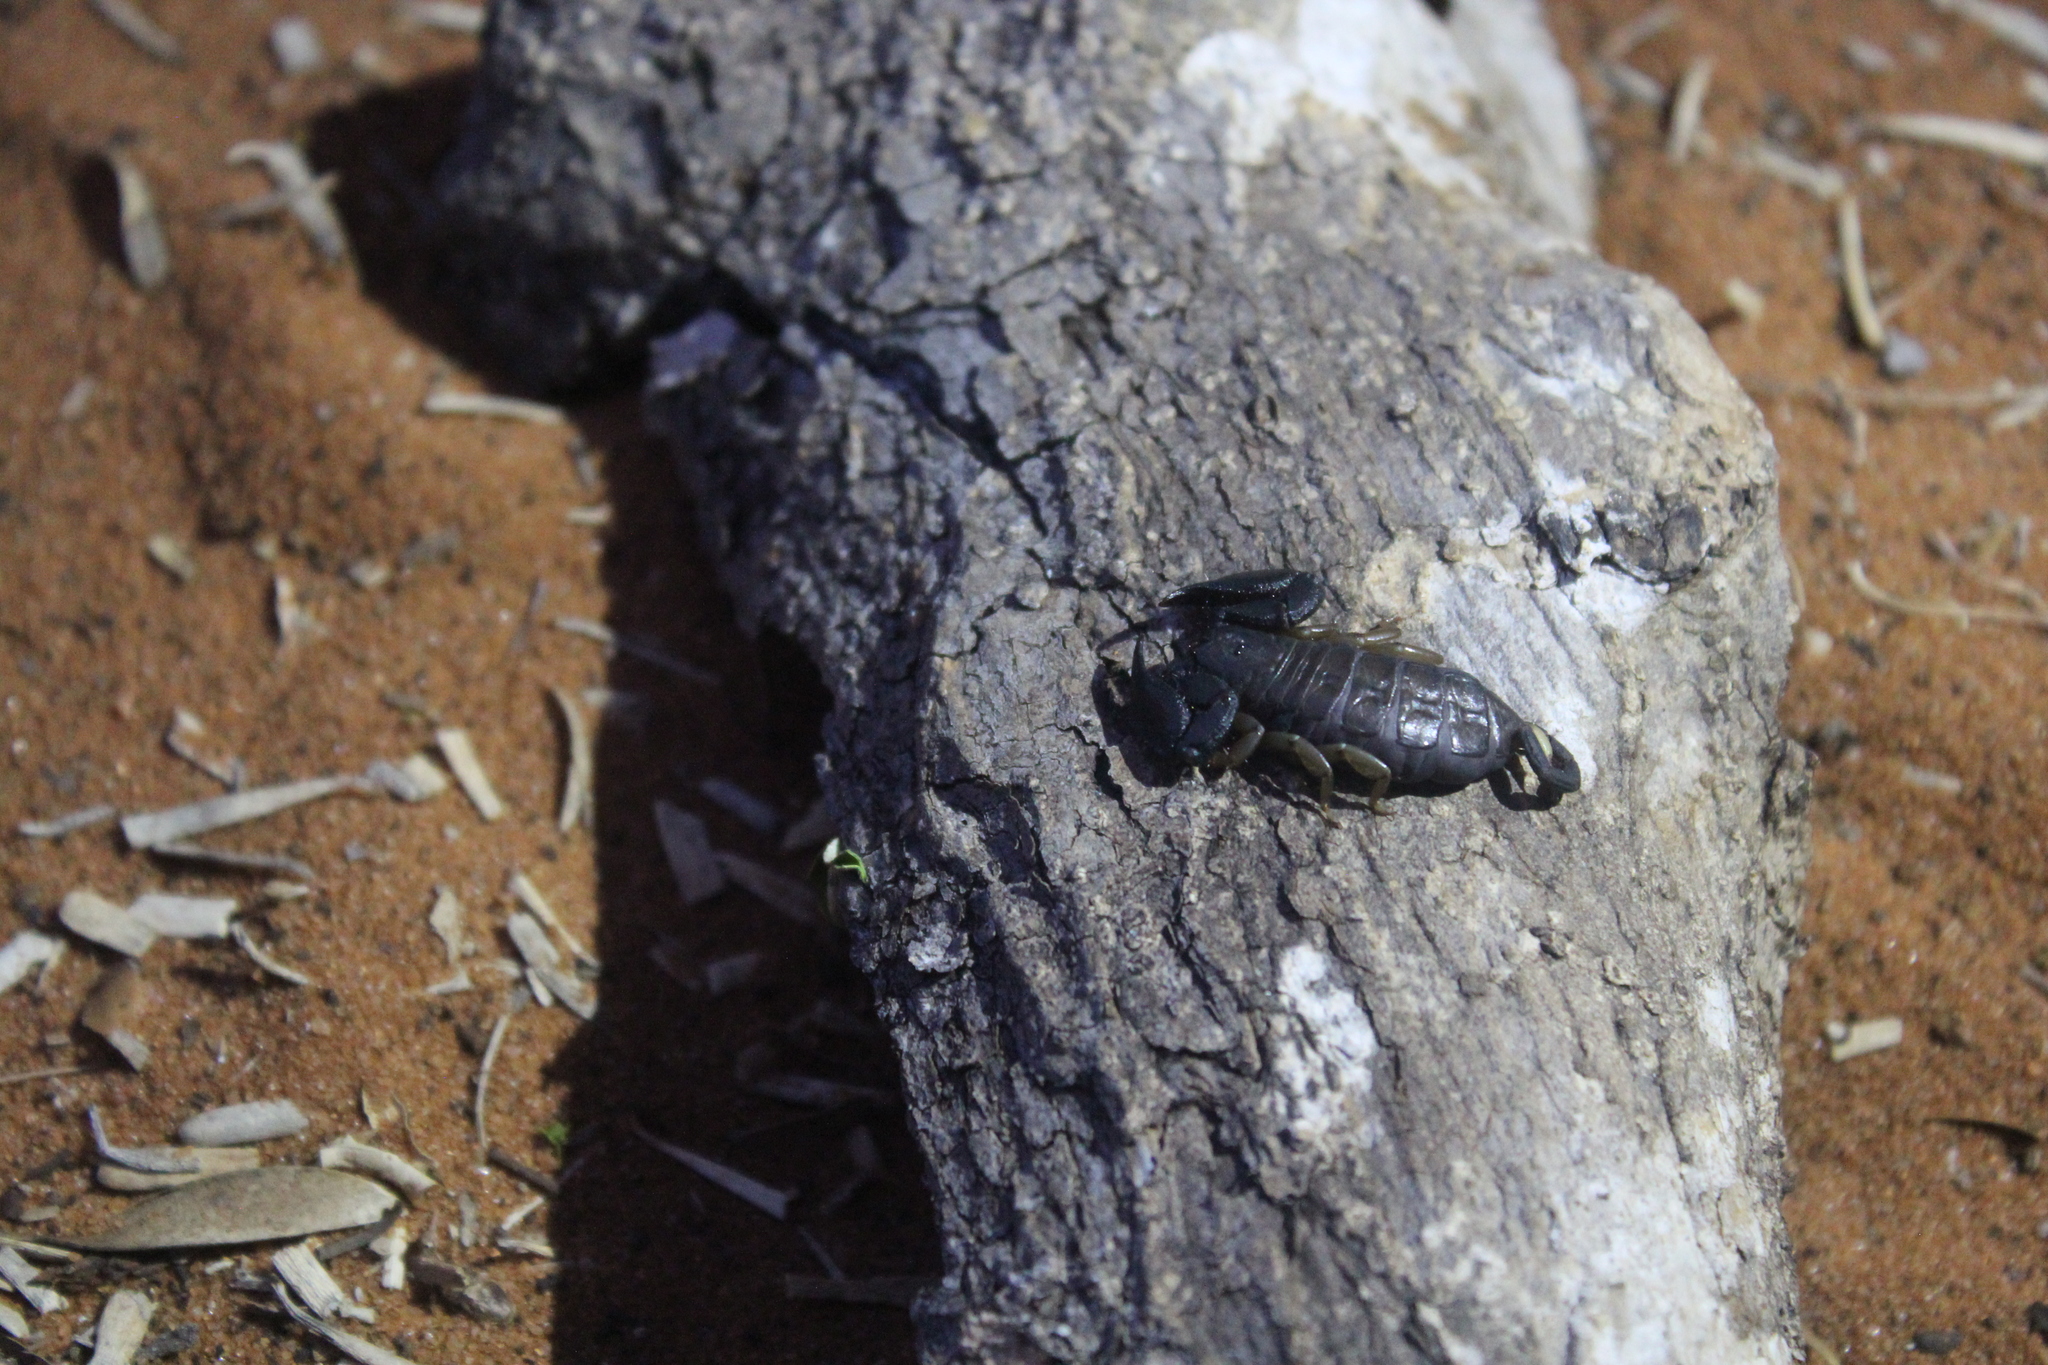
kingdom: Animalia
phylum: Arthropoda
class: Arachnida
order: Scorpiones
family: Hormuridae
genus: Opisthacanthus
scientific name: Opisthacanthus madagascariensis
